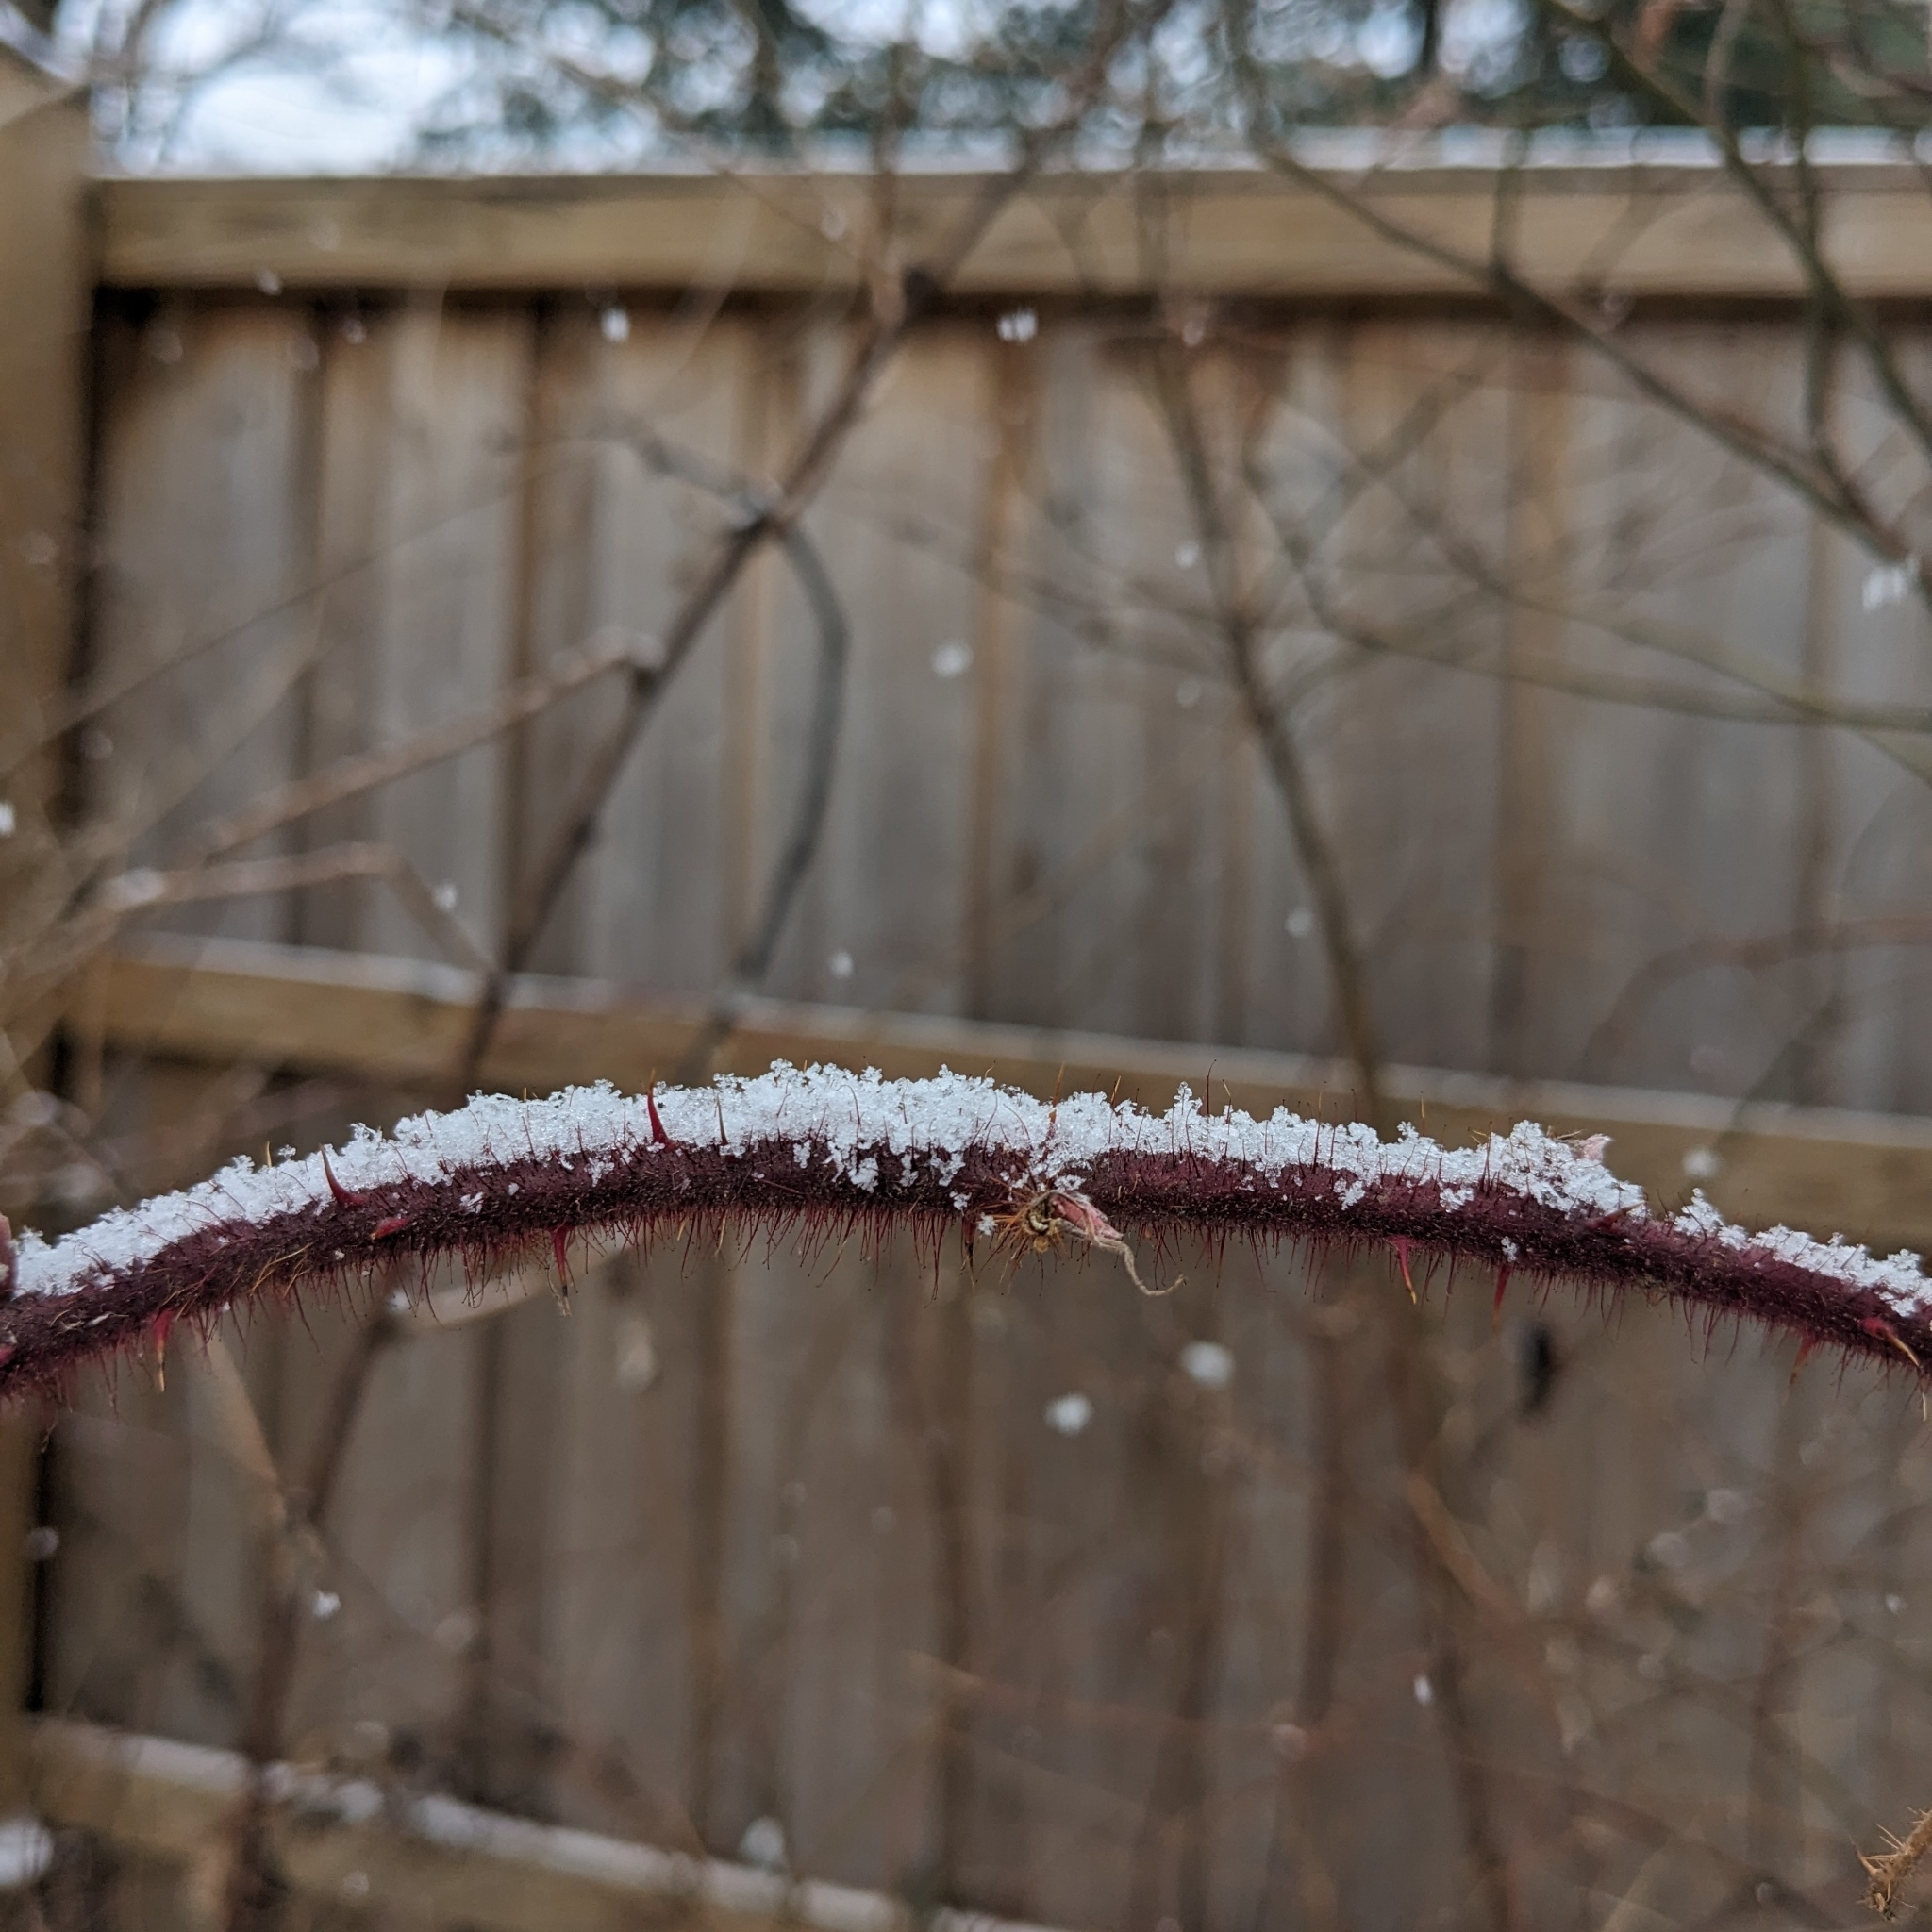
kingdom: Plantae
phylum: Tracheophyta
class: Magnoliopsida
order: Rosales
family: Rosaceae
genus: Rubus
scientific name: Rubus phoenicolasius
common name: Japanese wineberry
